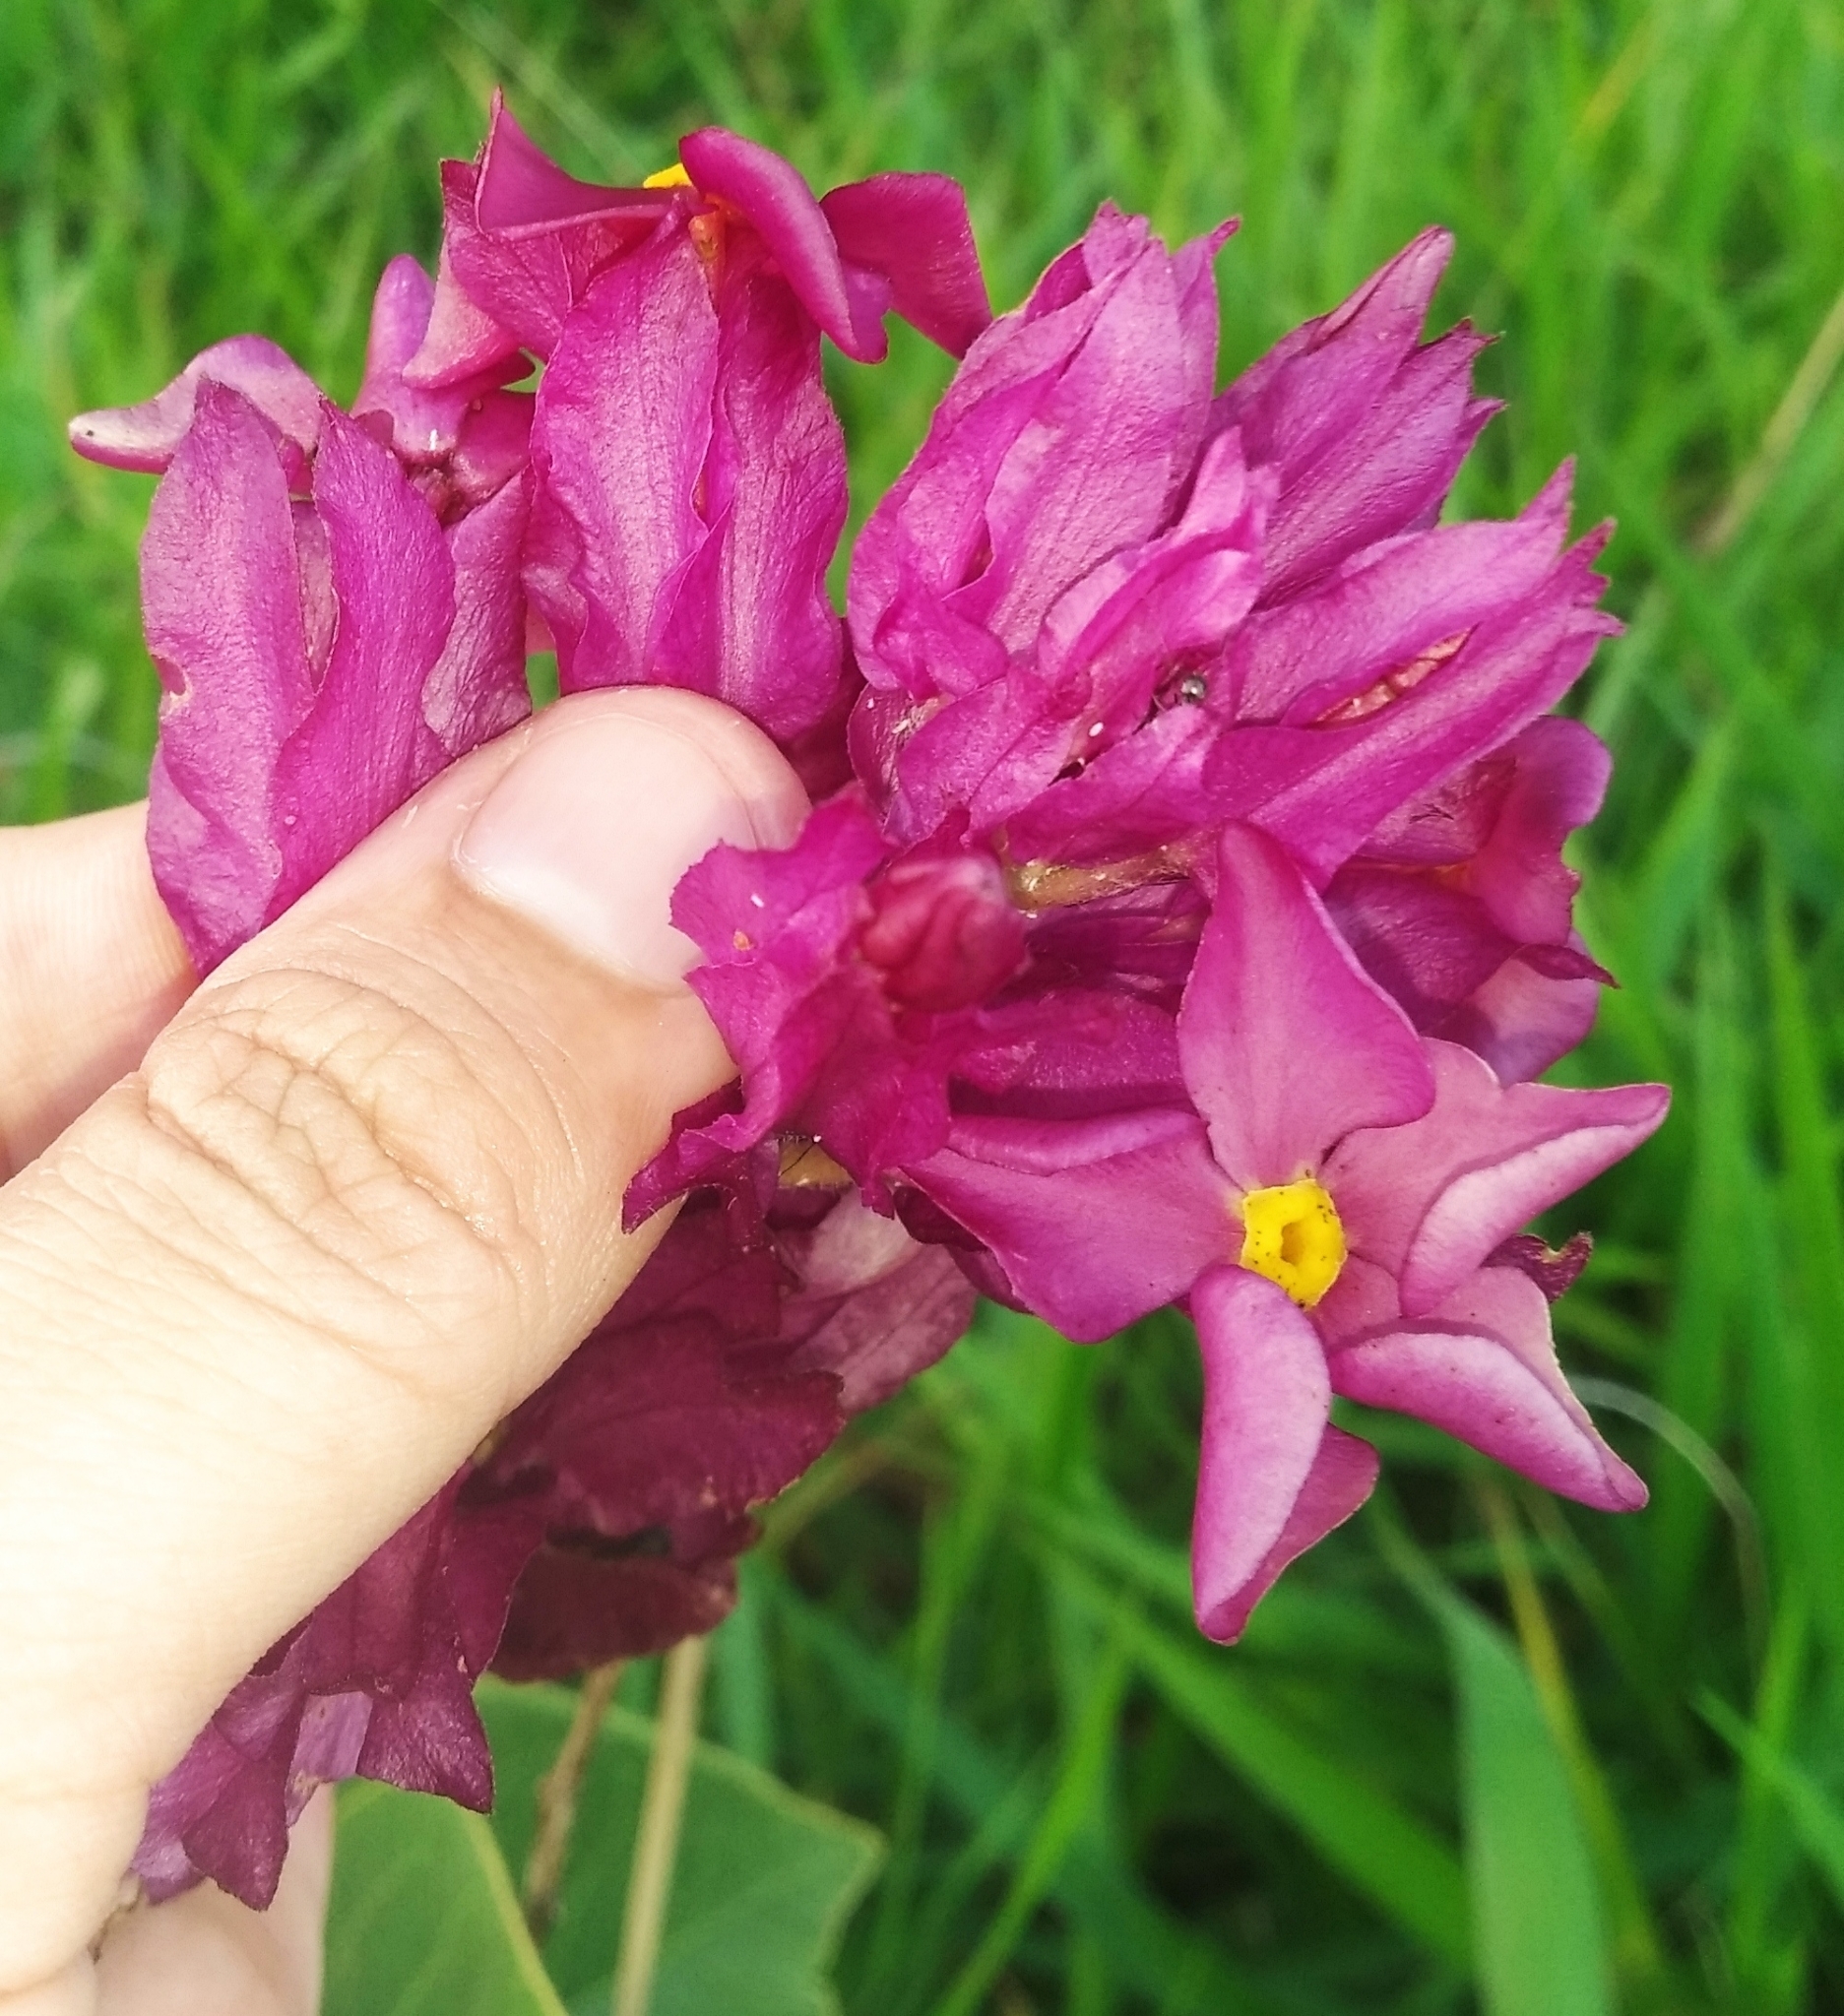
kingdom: Plantae
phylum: Tracheophyta
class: Magnoliopsida
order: Gentianales
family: Apocynaceae
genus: Prestonia
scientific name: Prestonia erecta
